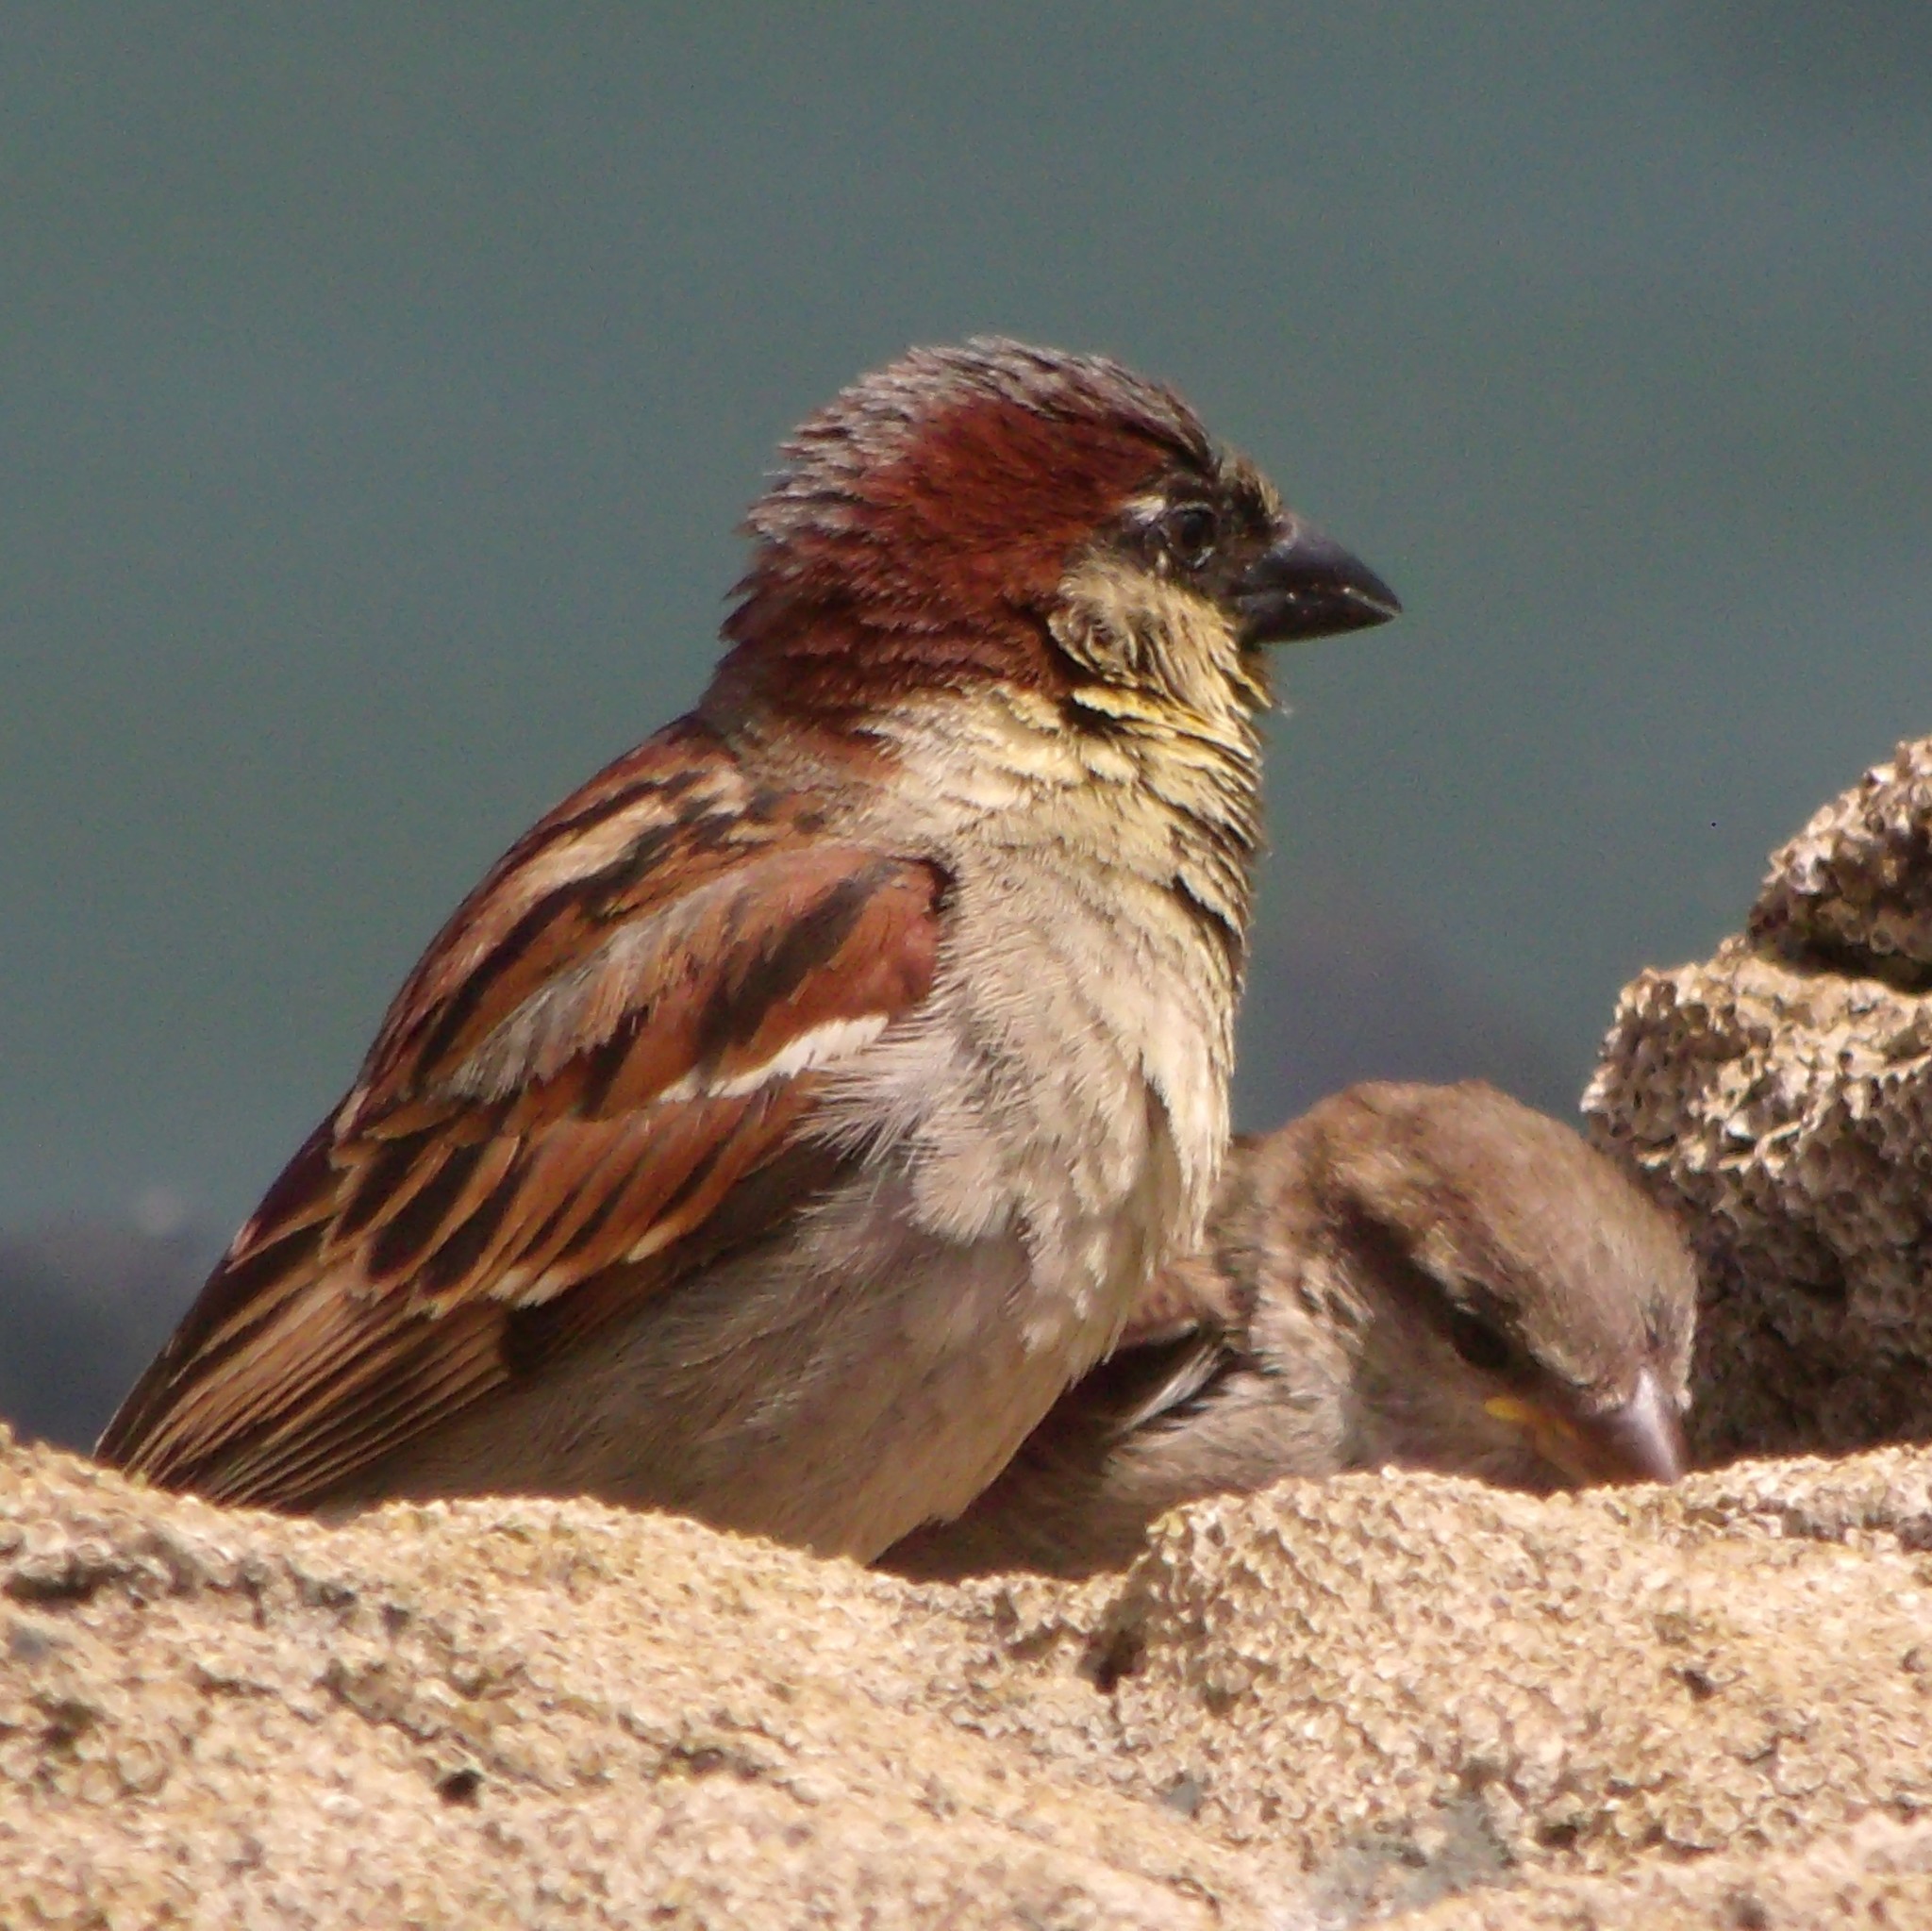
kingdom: Animalia
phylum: Chordata
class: Aves
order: Passeriformes
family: Passeridae
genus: Passer
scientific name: Passer domesticus
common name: House sparrow
